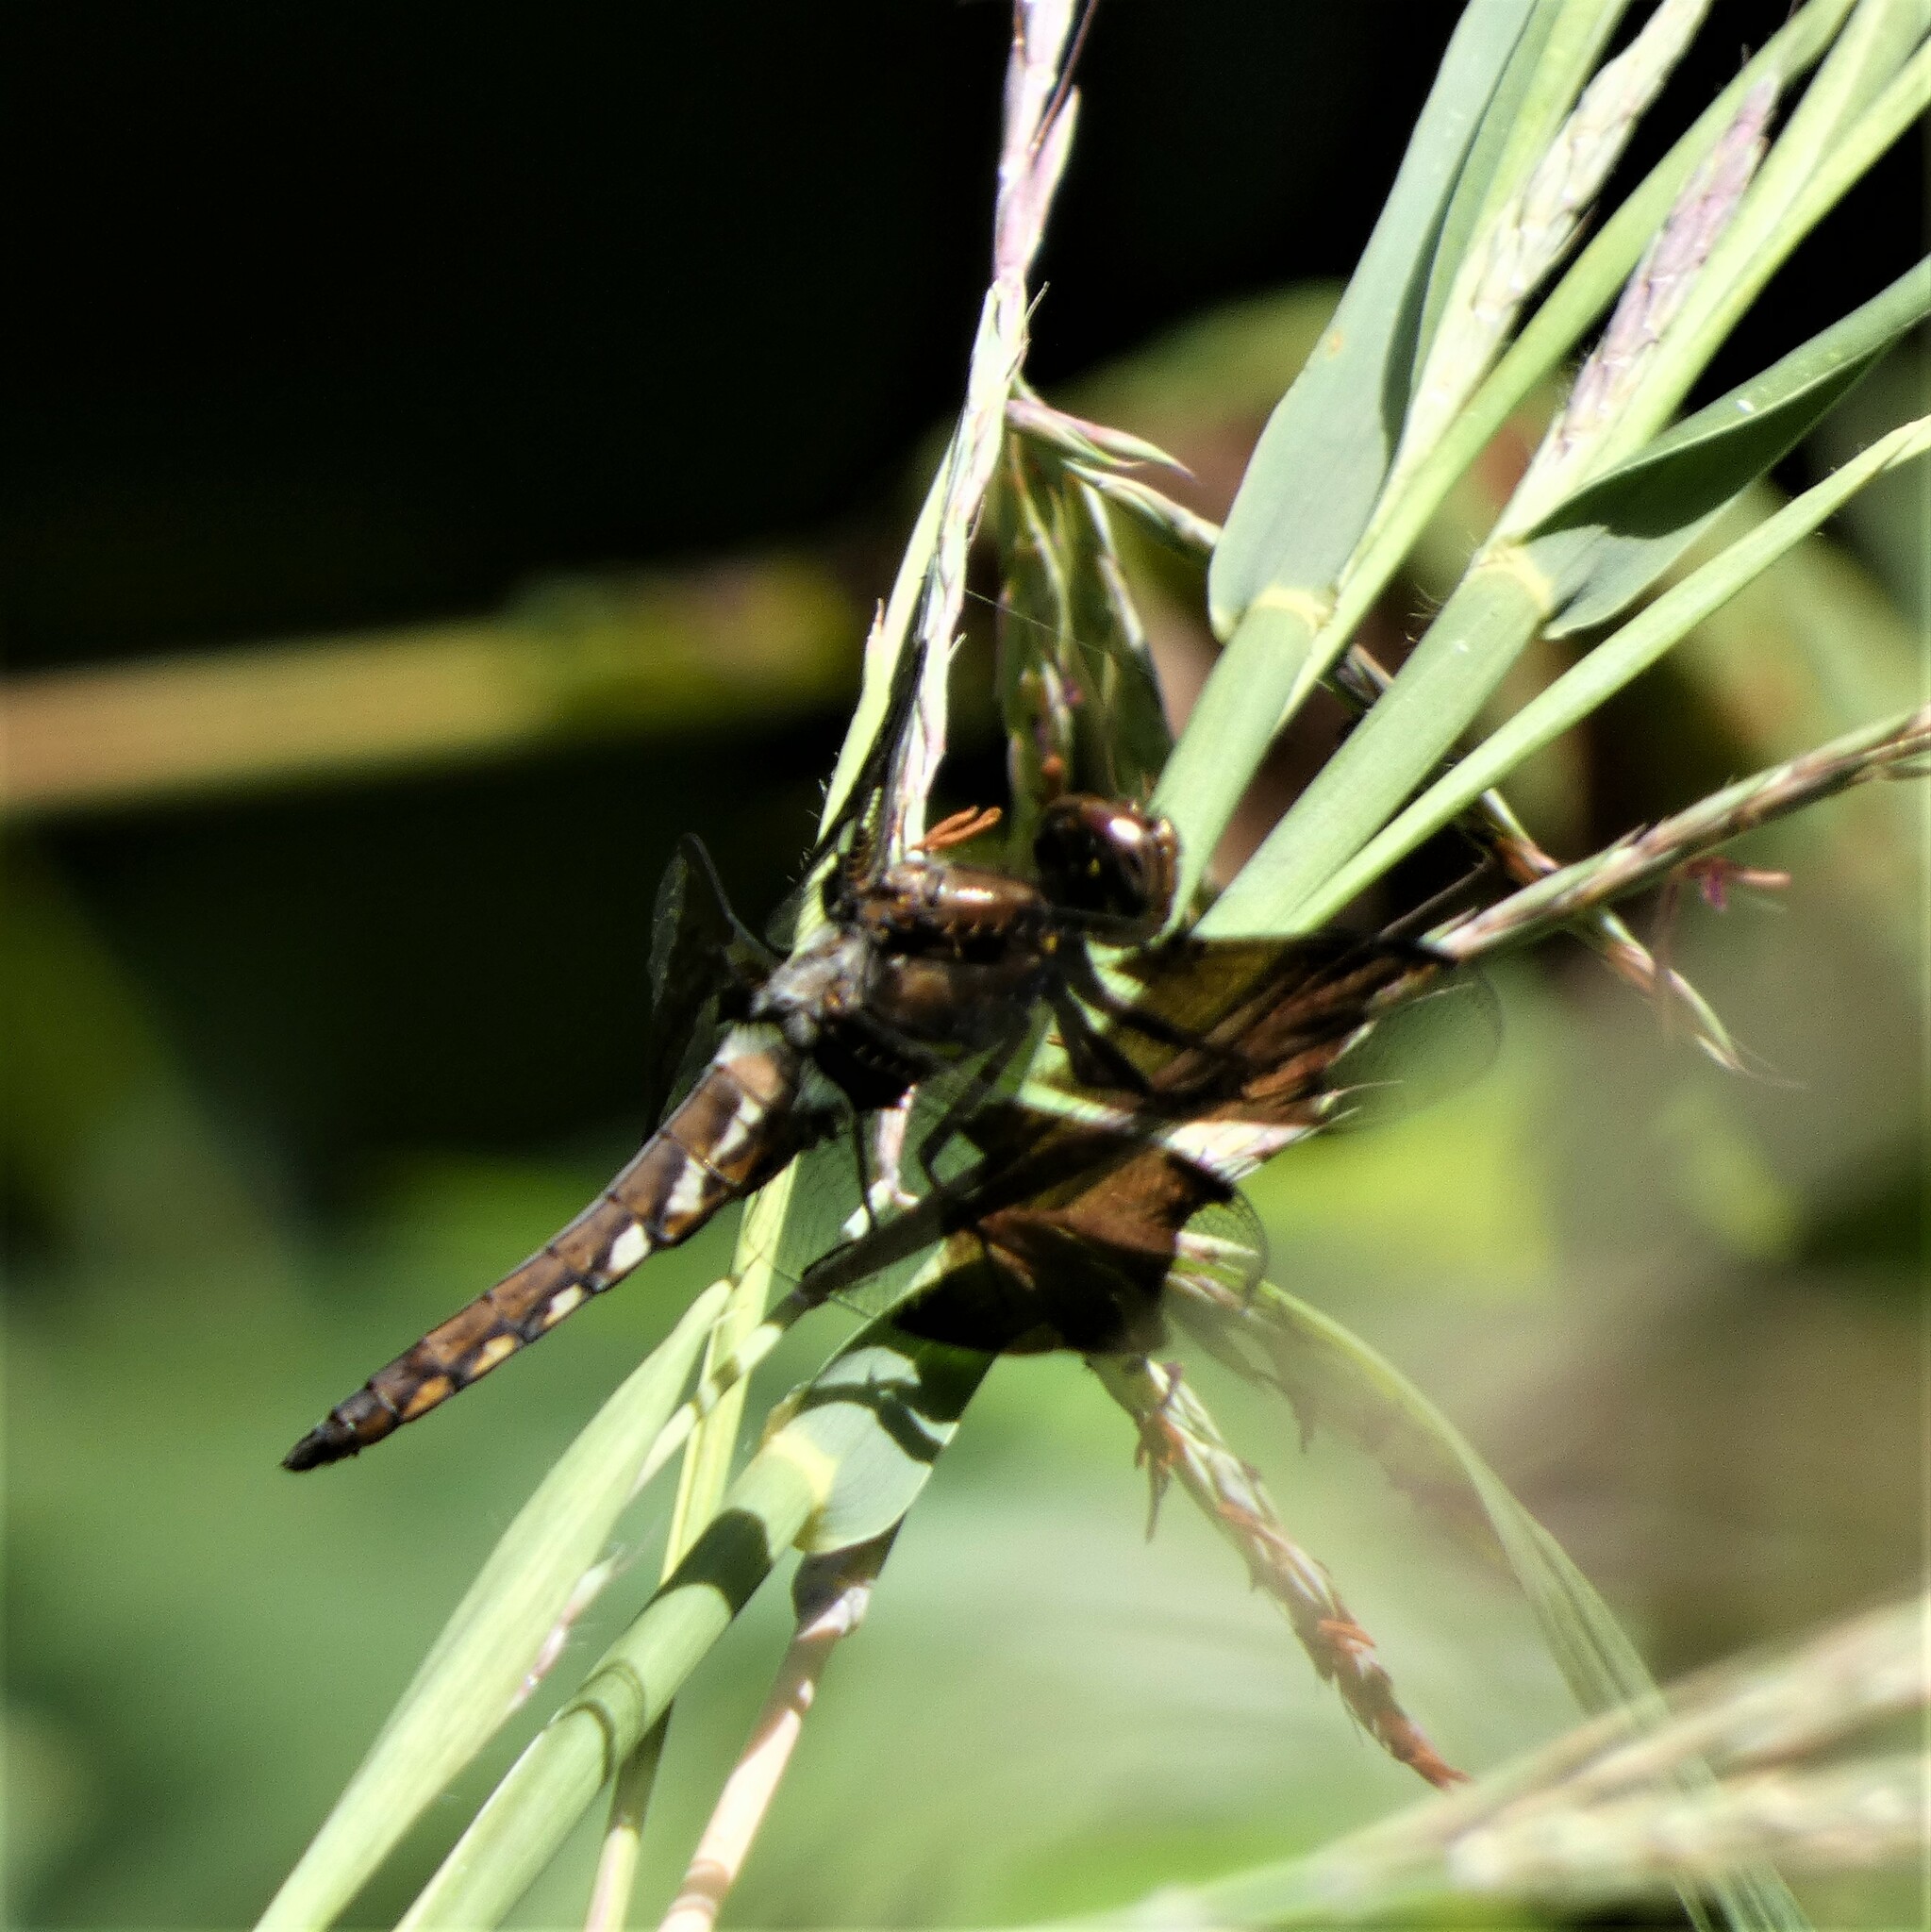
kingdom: Animalia
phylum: Arthropoda
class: Insecta
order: Odonata
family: Libellulidae
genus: Plathemis
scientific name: Plathemis lydia
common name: Common whitetail
